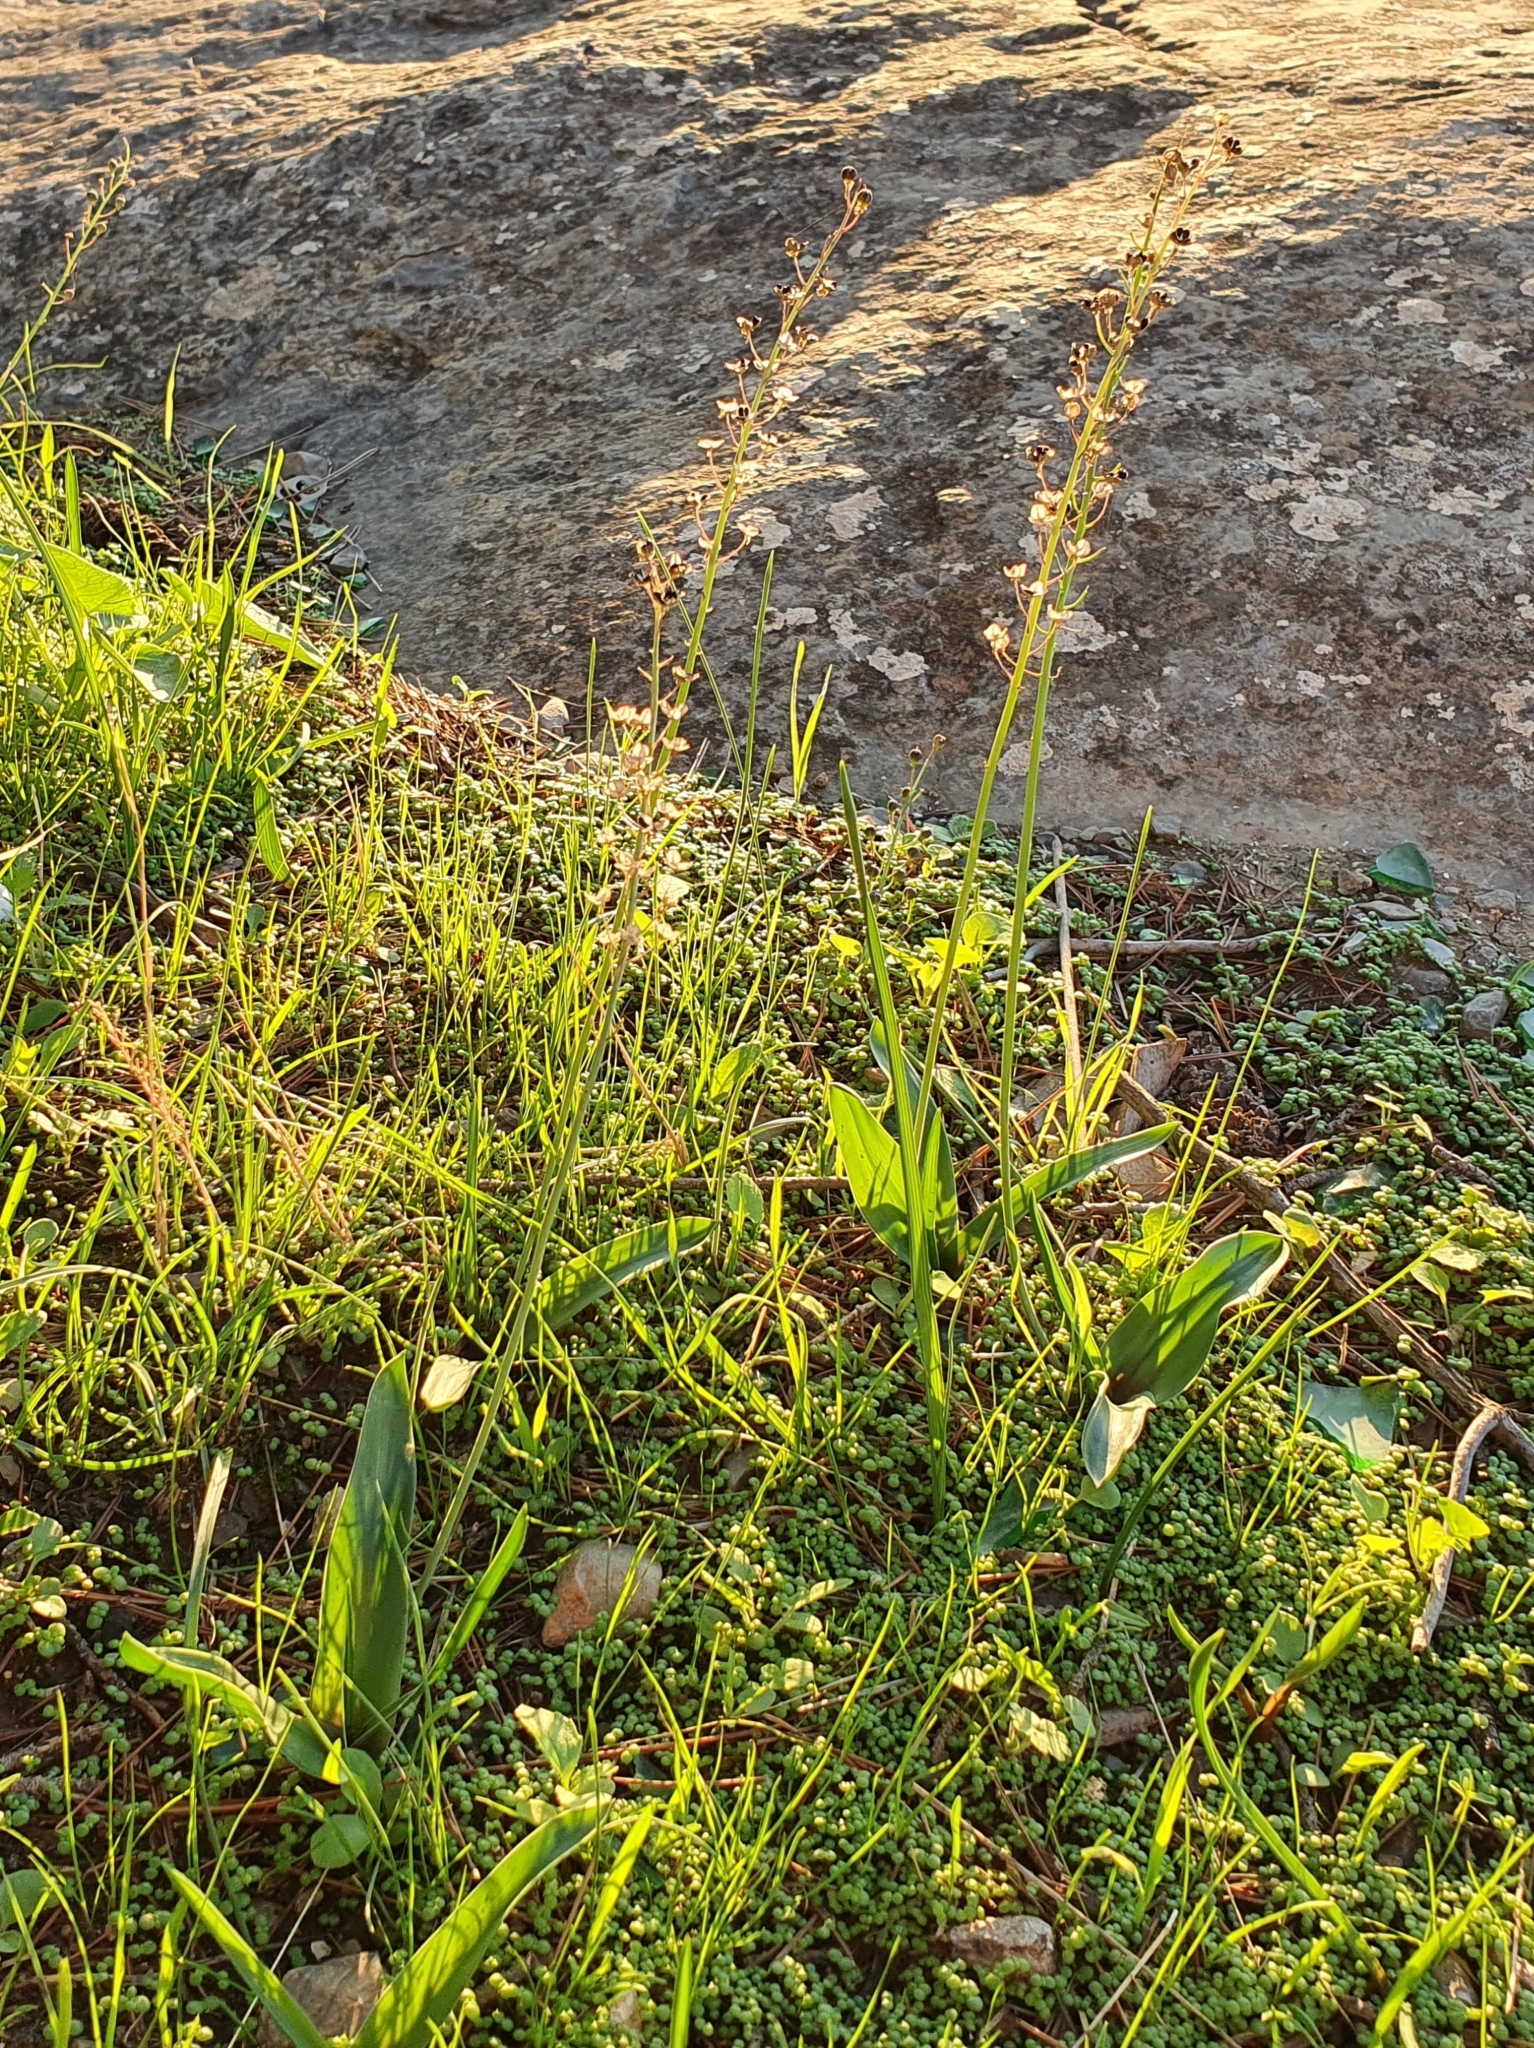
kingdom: Plantae
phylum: Tracheophyta
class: Liliopsida
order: Asparagales
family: Asparagaceae
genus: Prospero
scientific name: Prospero obtusifolium
